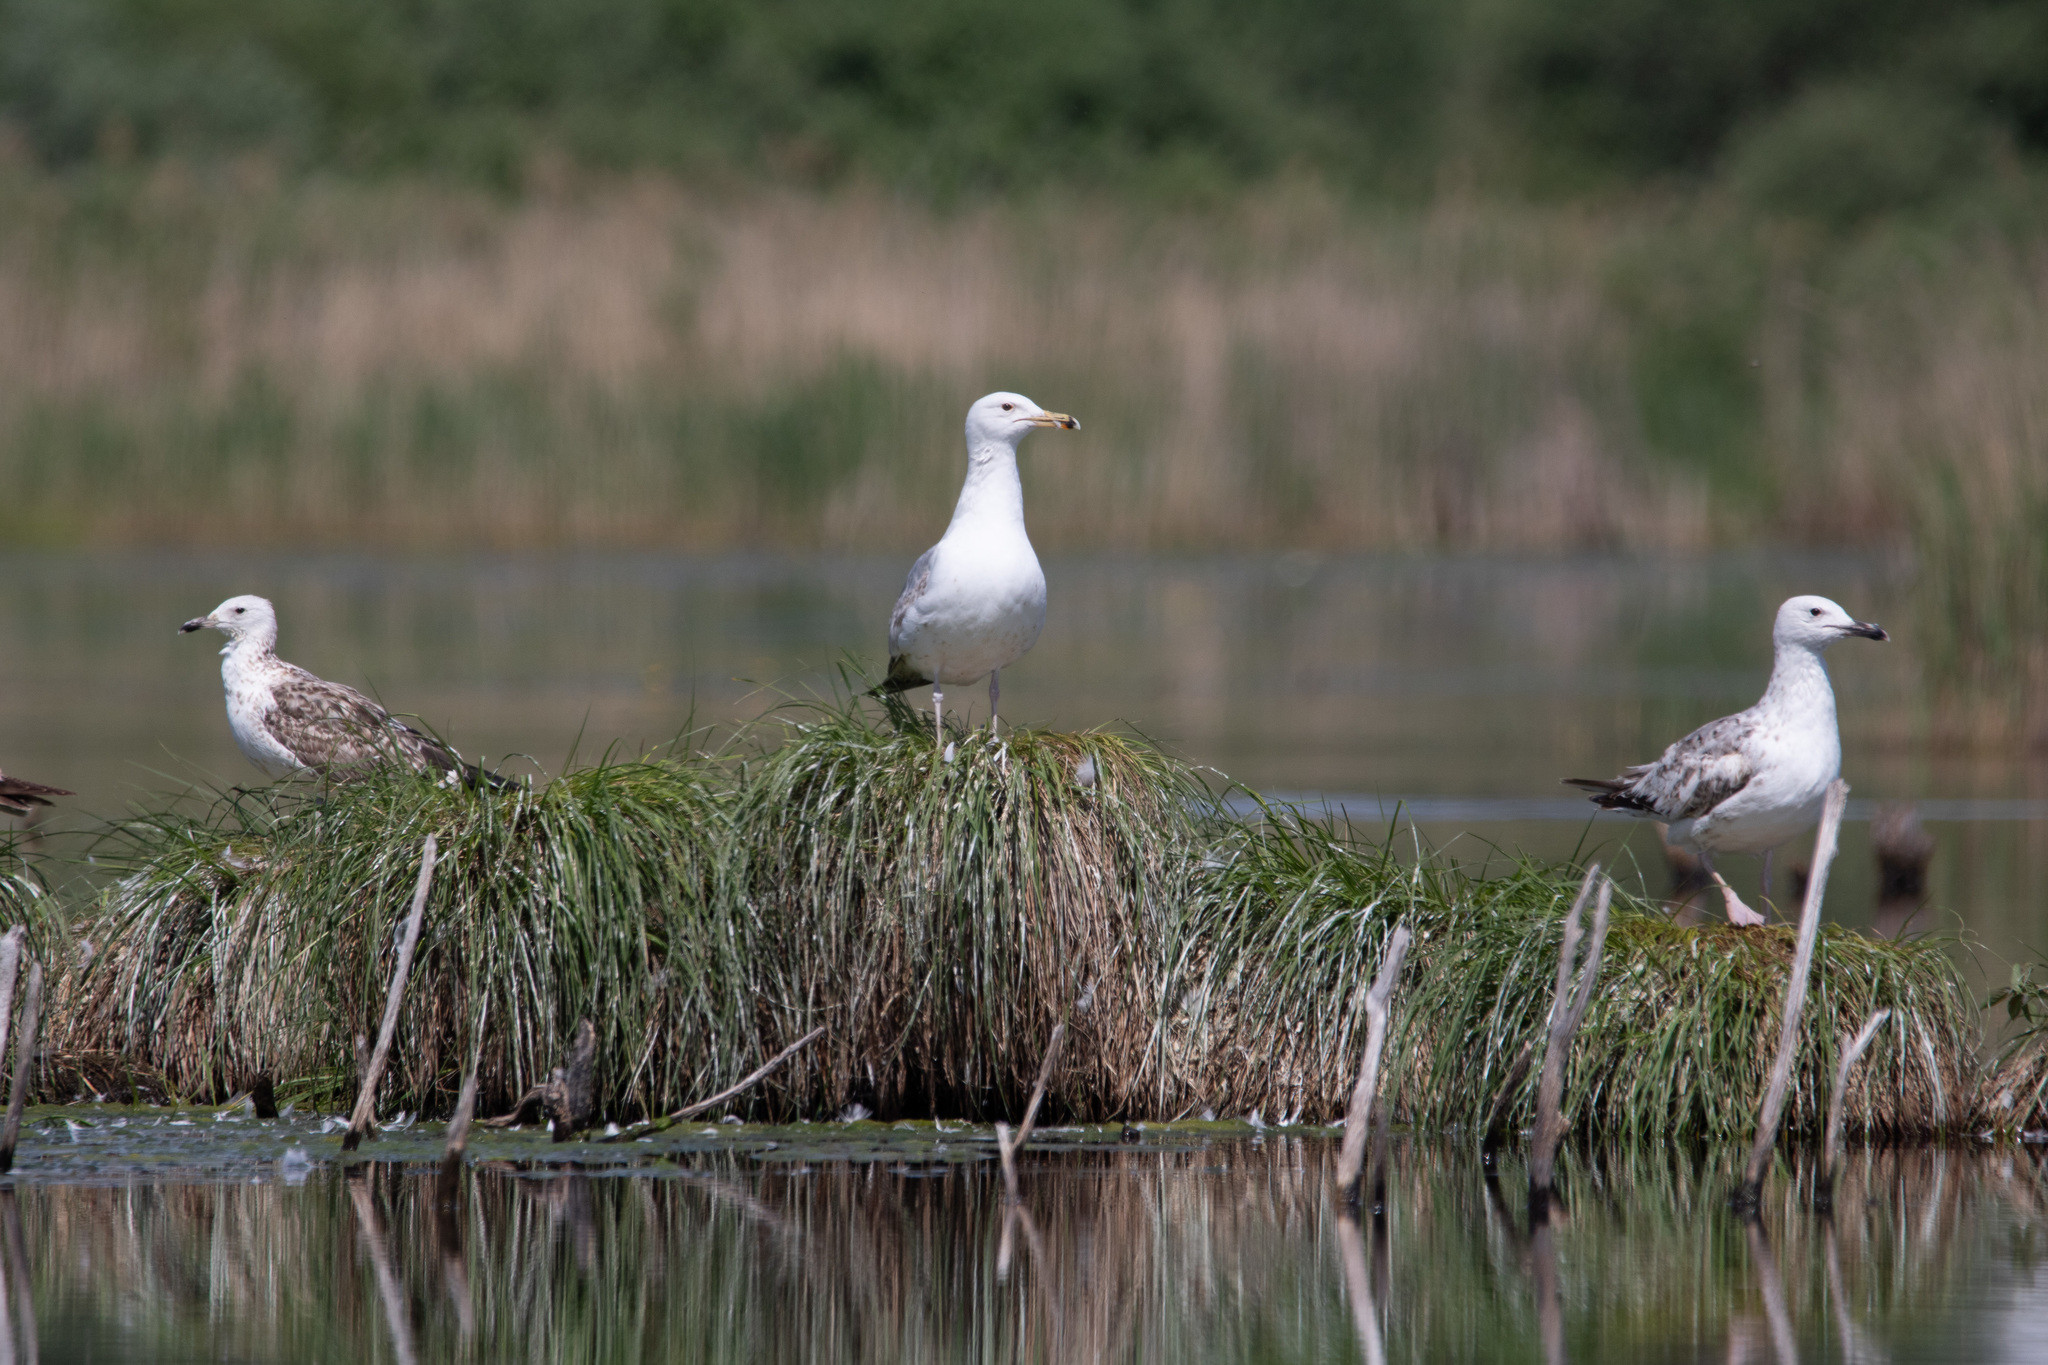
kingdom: Animalia
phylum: Chordata
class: Aves
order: Charadriiformes
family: Laridae
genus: Larus
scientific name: Larus cachinnans
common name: Caspian gull
